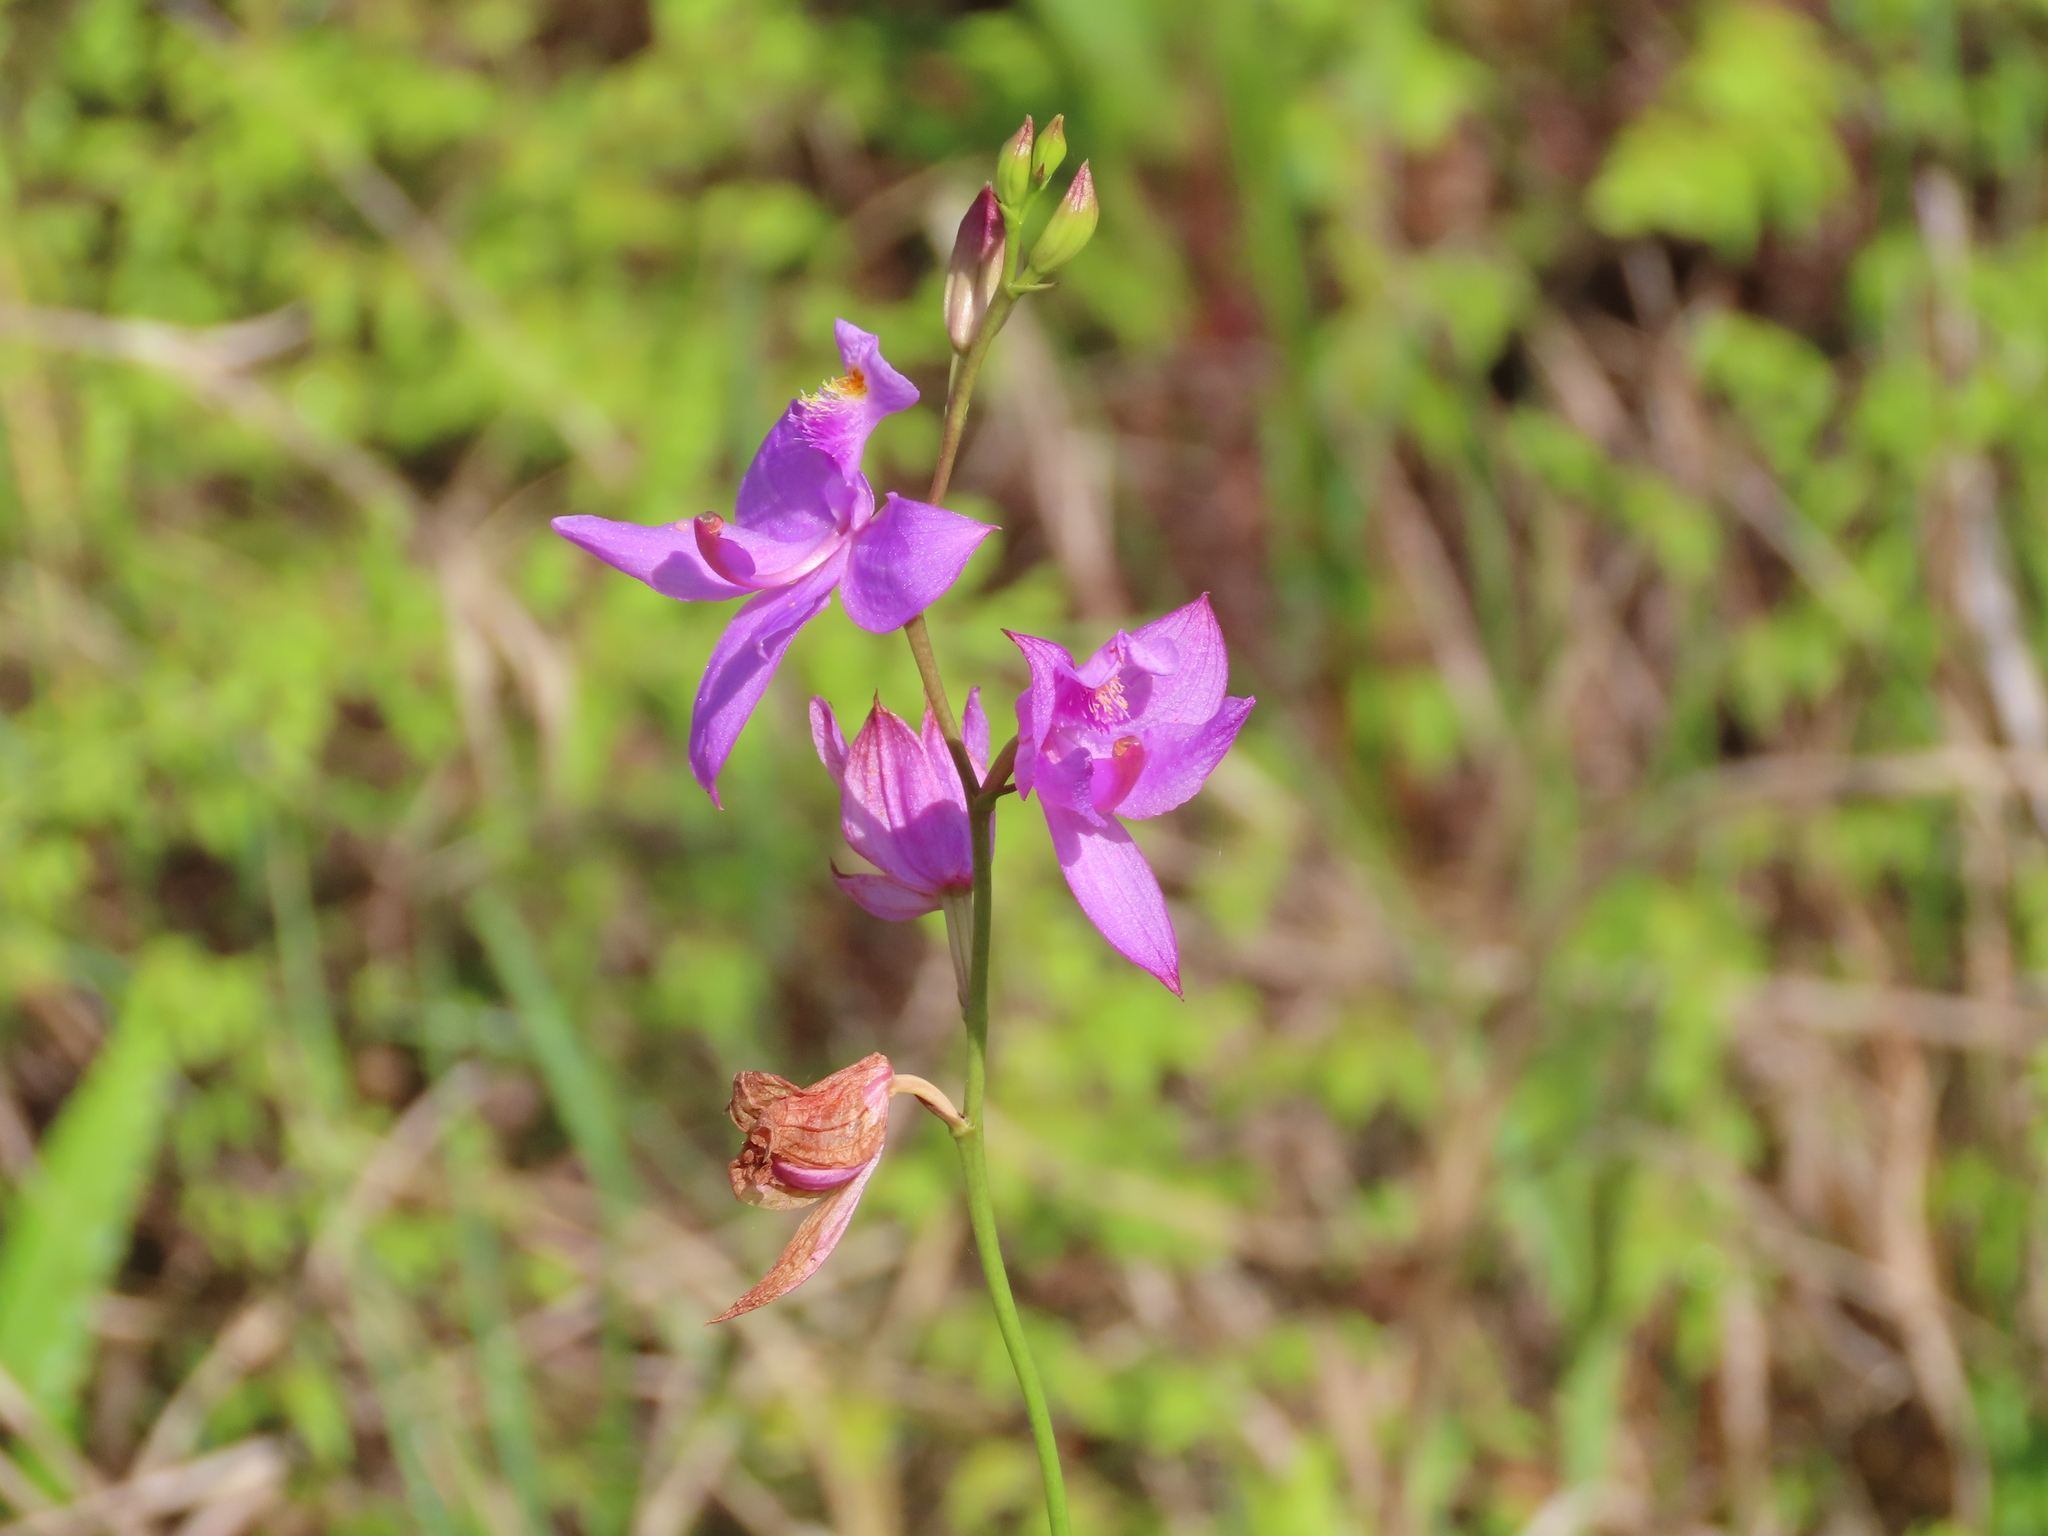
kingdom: Plantae
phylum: Tracheophyta
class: Liliopsida
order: Asparagales
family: Orchidaceae
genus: Calopogon
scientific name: Calopogon tuberosus
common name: Grass-pink
